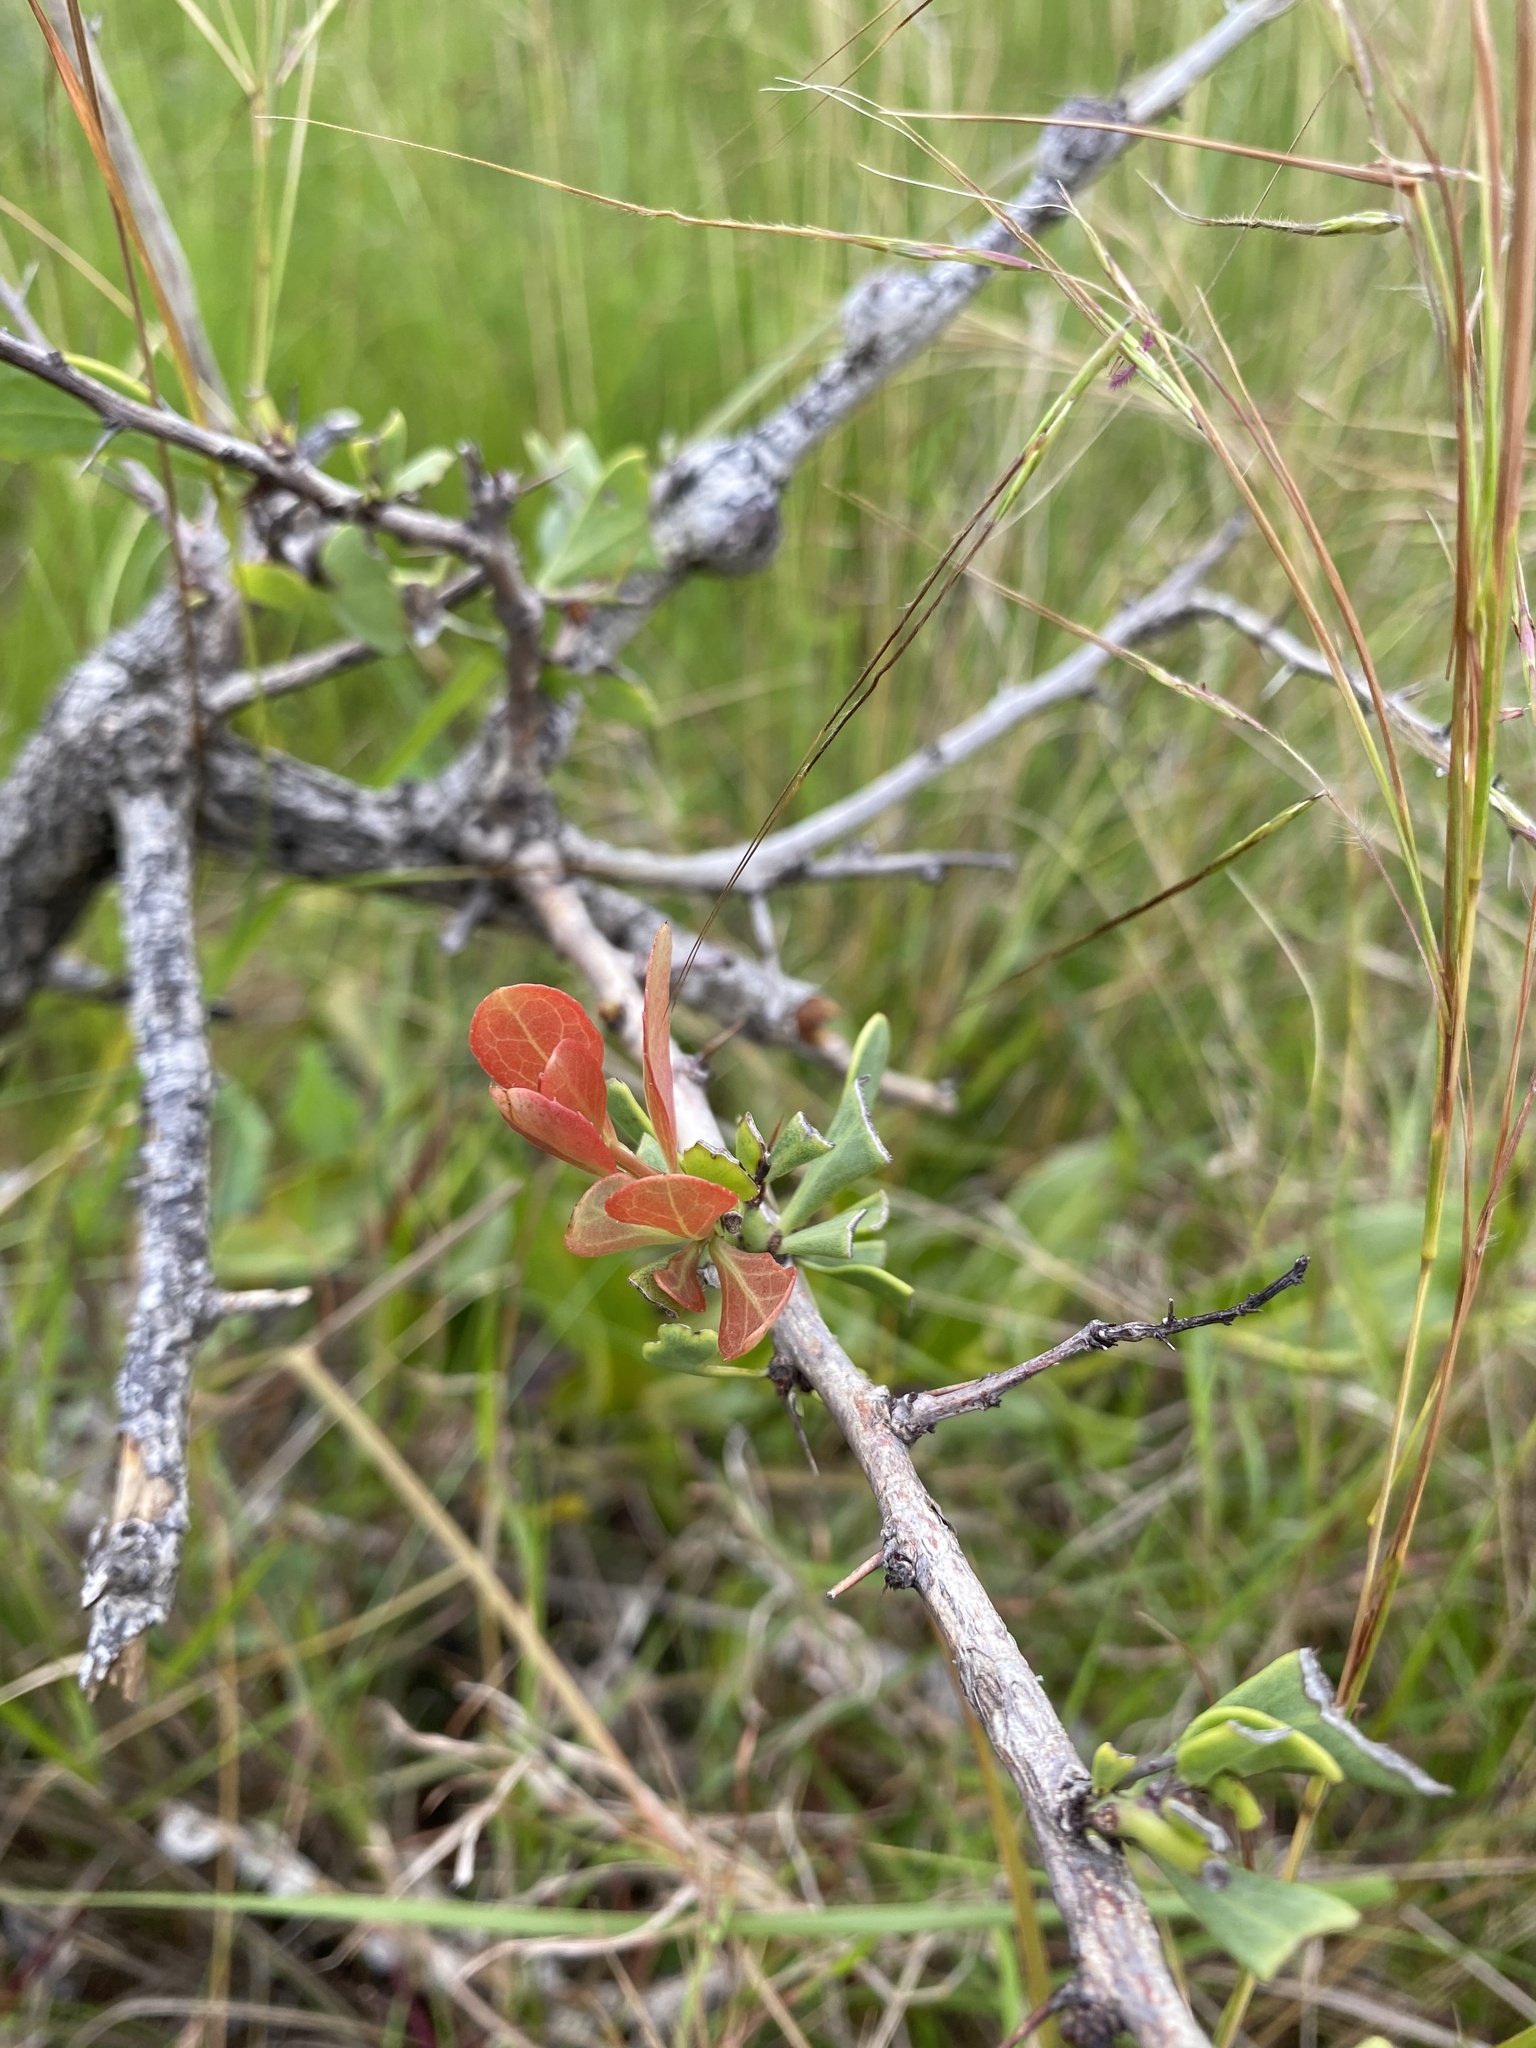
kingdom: Plantae
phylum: Tracheophyta
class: Magnoliopsida
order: Celastrales
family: Celastraceae
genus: Gymnosporia
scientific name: Gymnosporia glaucophylla
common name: Blue spike-thorn
